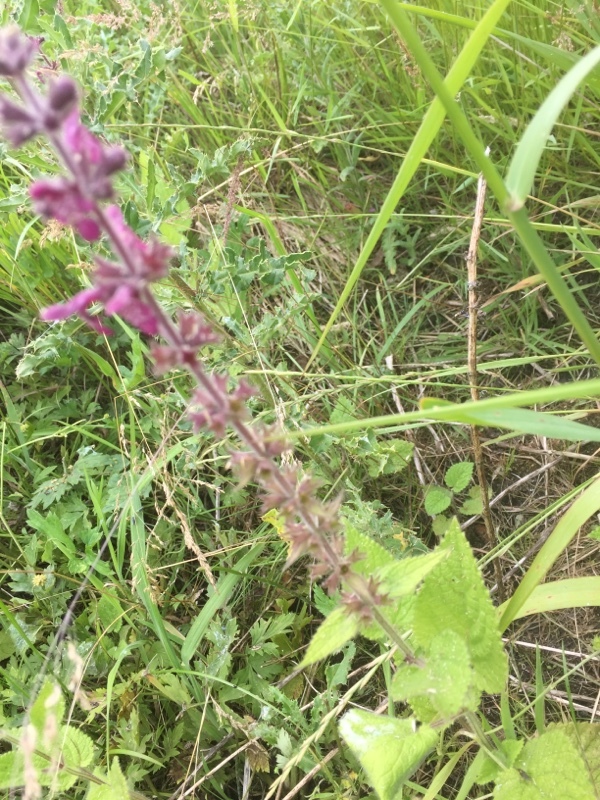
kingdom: Plantae
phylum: Tracheophyta
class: Magnoliopsida
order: Lamiales
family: Lamiaceae
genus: Stachys
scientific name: Stachys sylvatica
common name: Hedge woundwort
